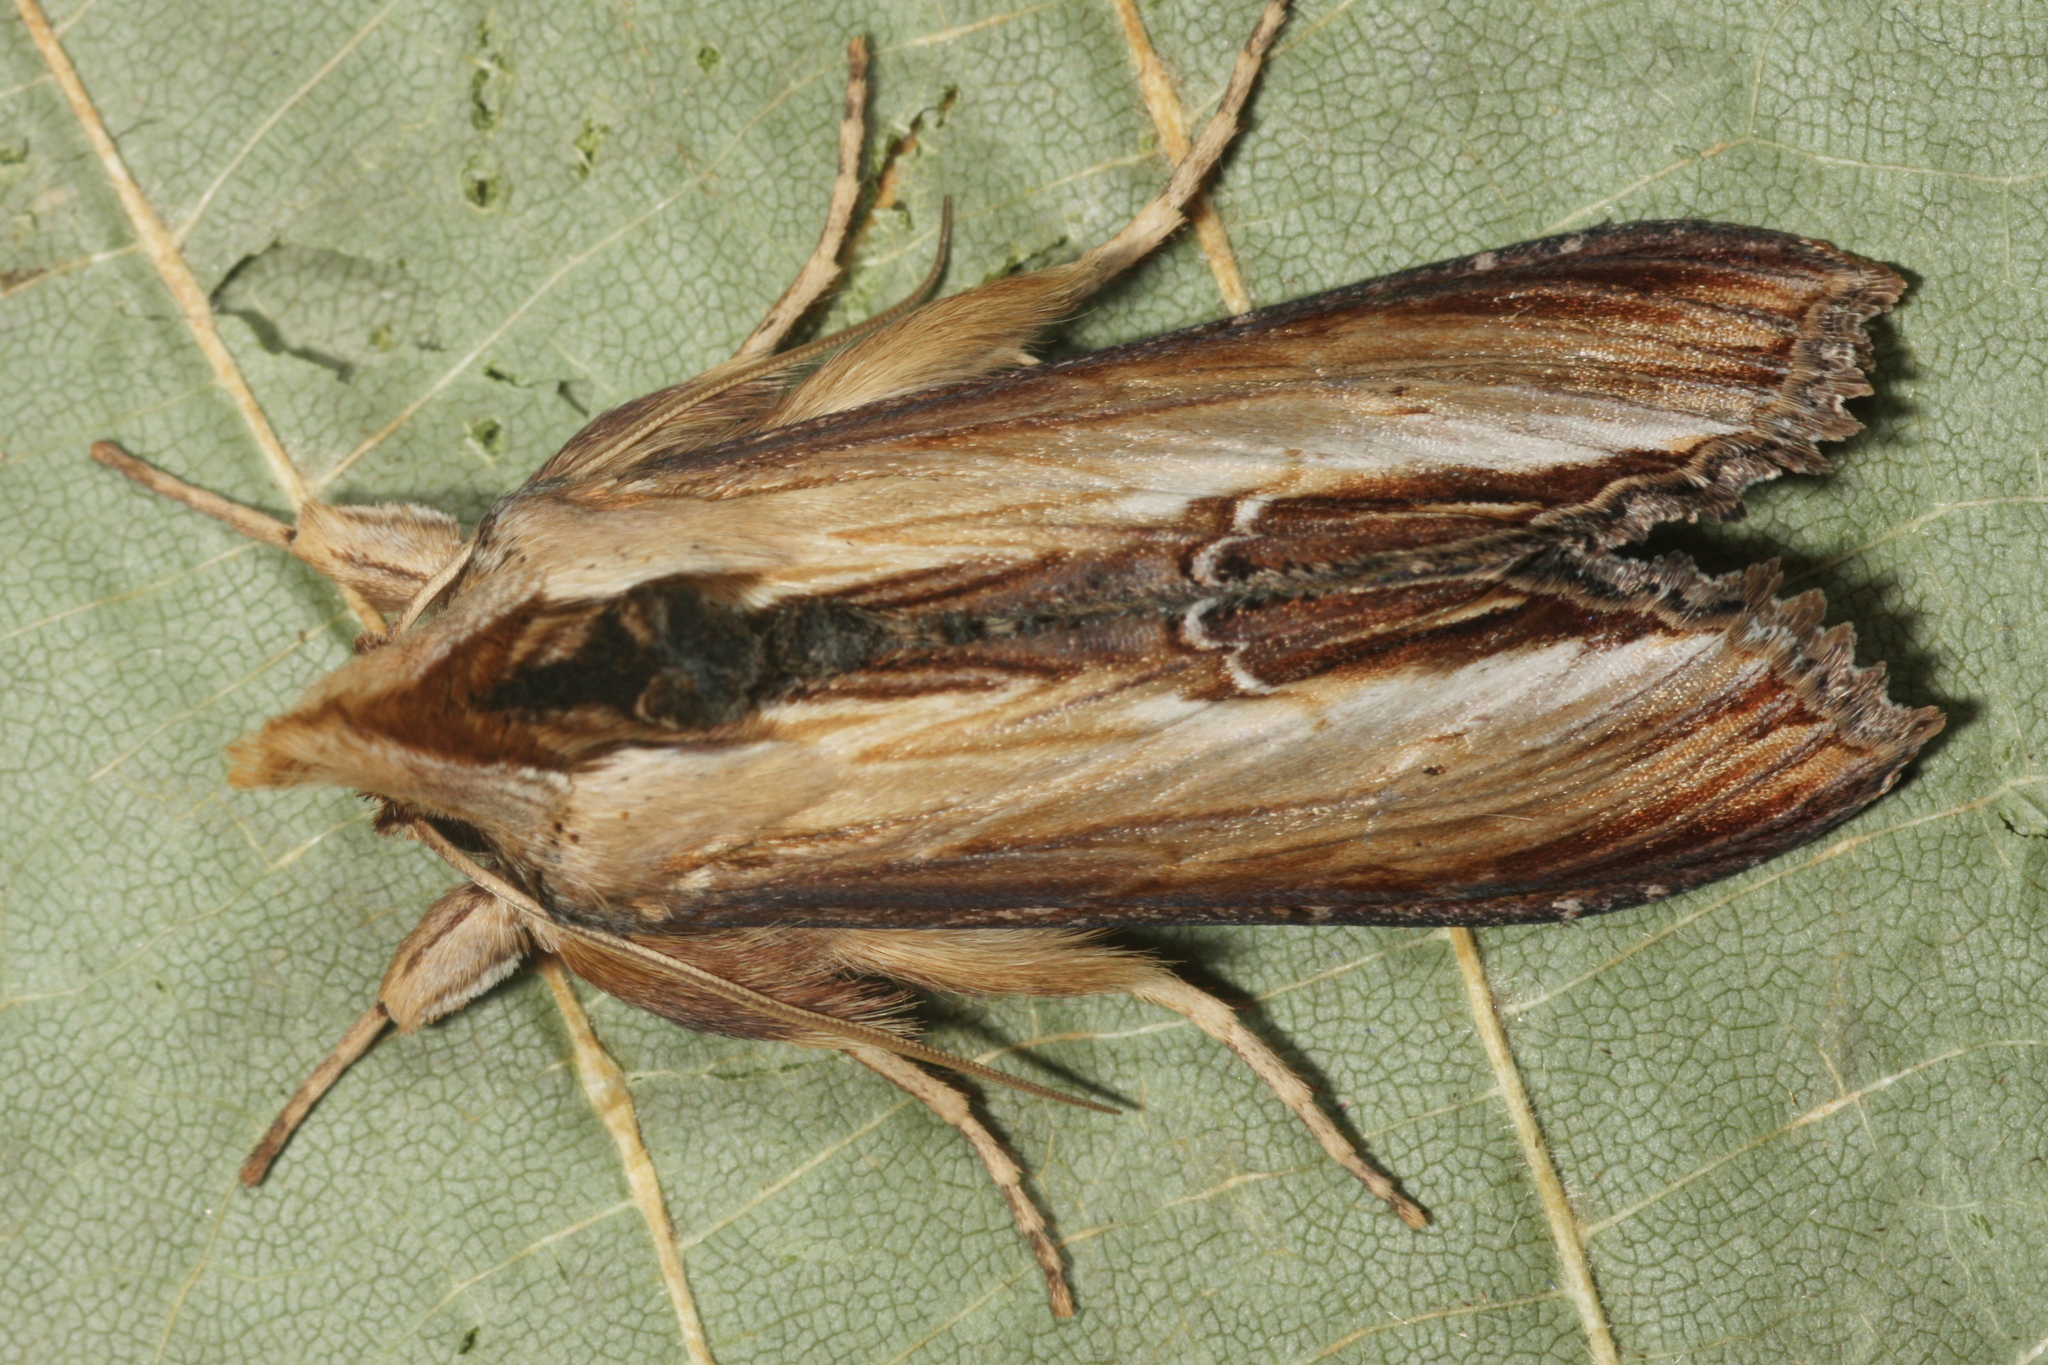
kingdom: Animalia
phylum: Arthropoda
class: Insecta
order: Lepidoptera
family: Noctuidae
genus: Cucullia
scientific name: Cucullia verbasci
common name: Mullein
